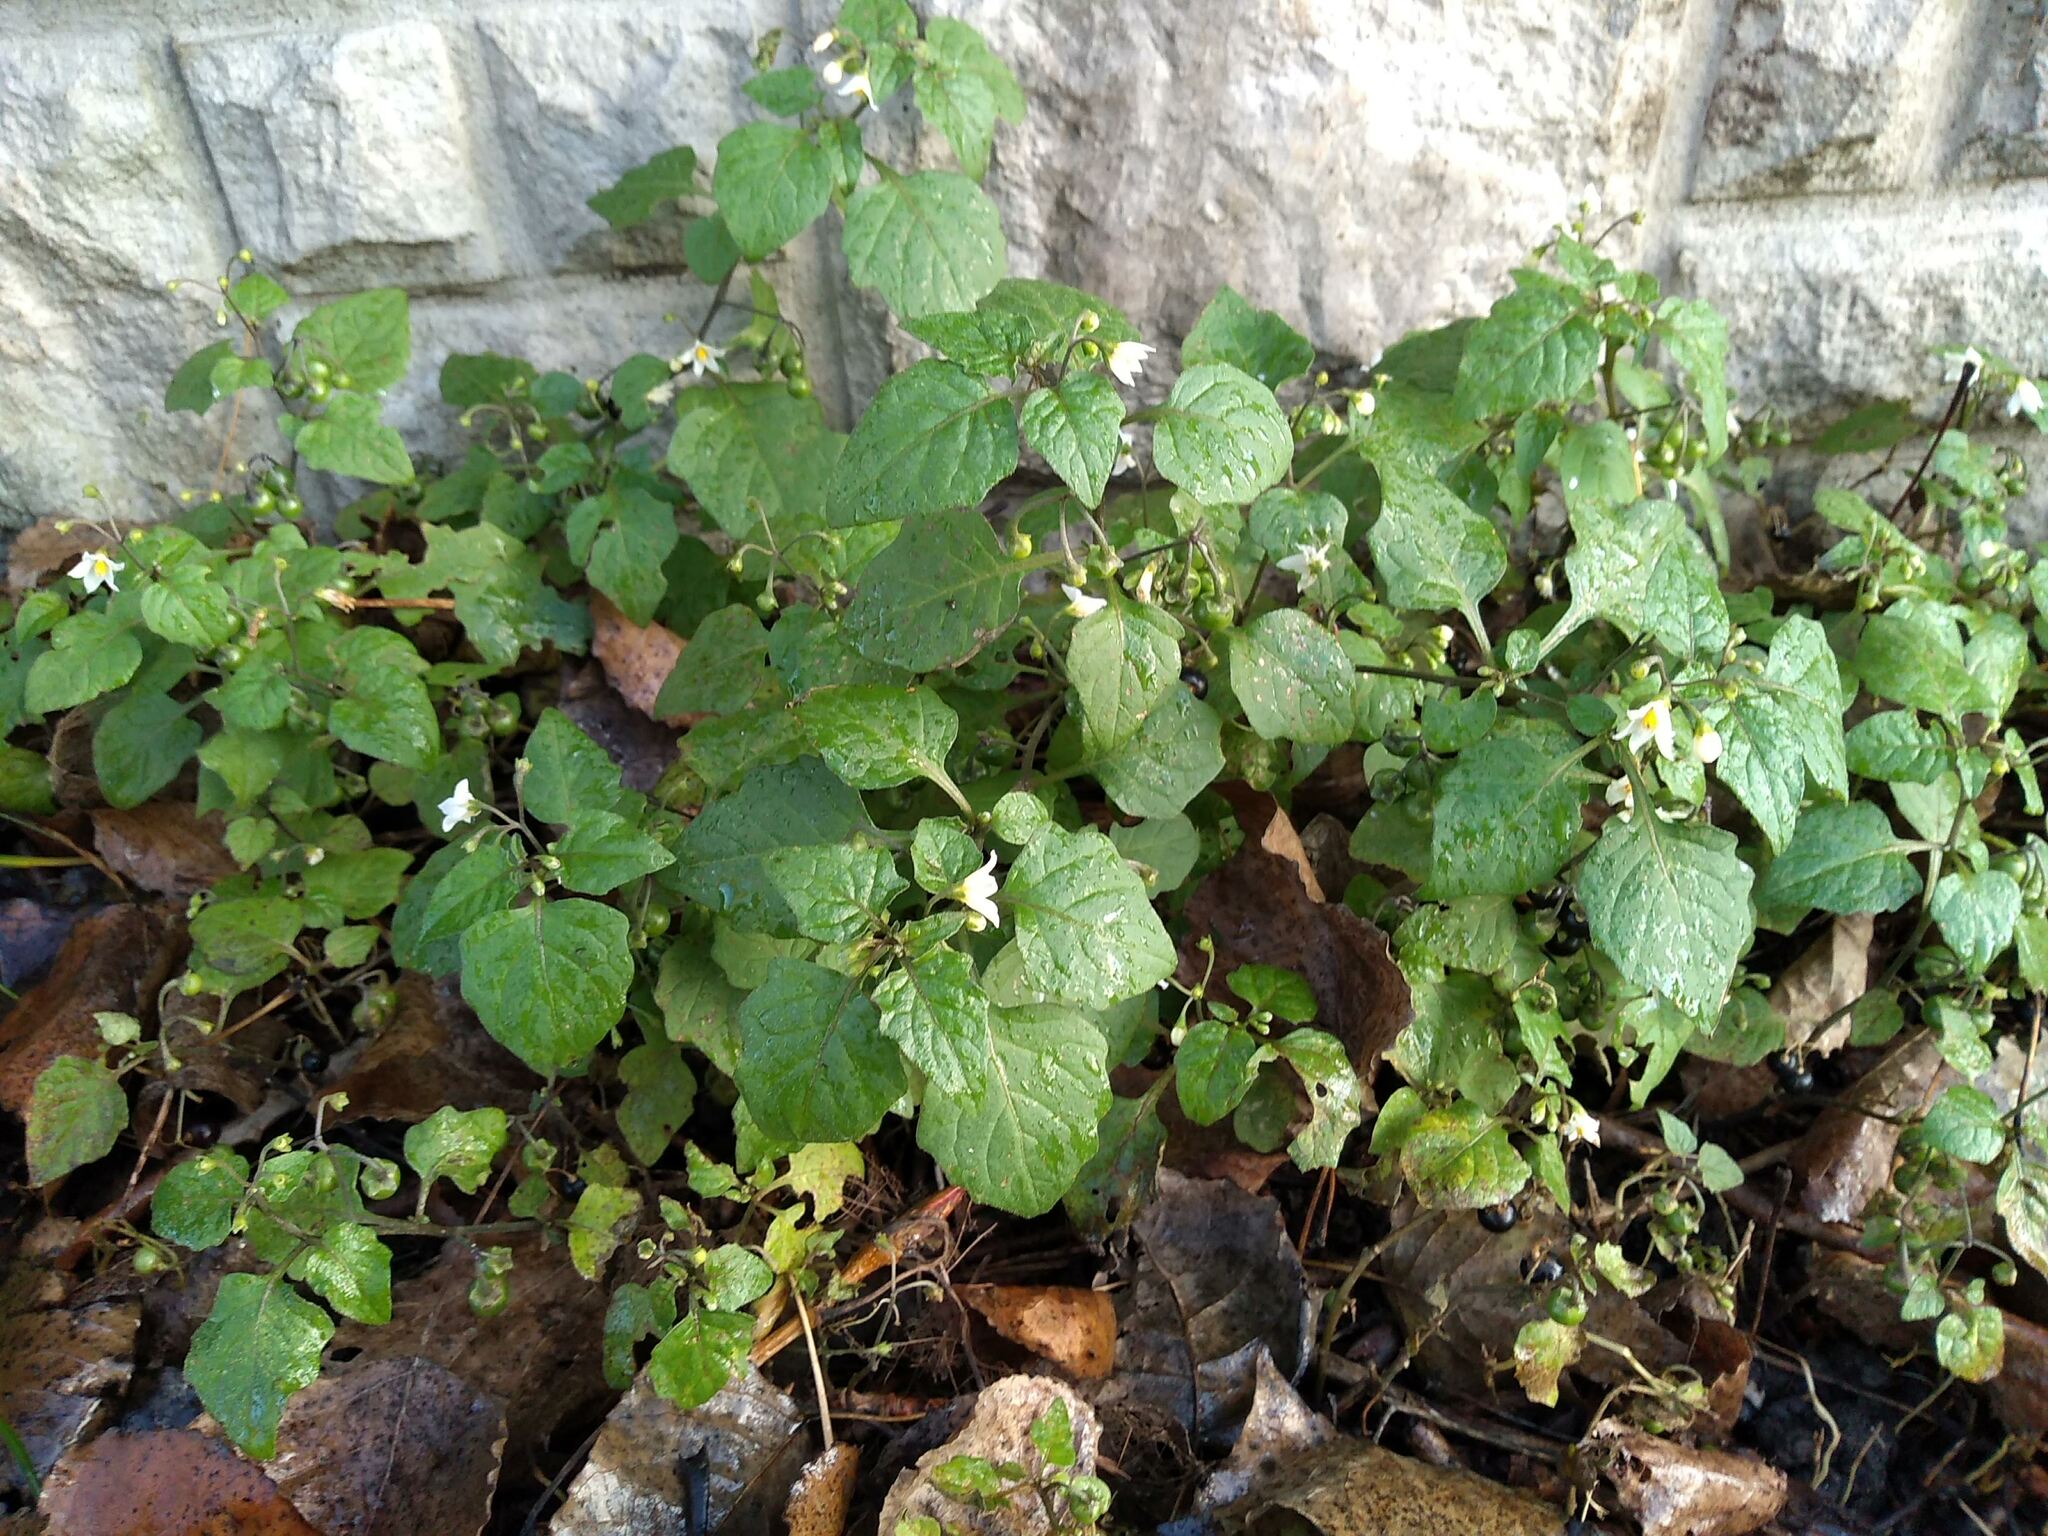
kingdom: Plantae
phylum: Tracheophyta
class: Magnoliopsida
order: Solanales
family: Solanaceae
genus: Solanum
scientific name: Solanum nigrum
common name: Black nightshade
